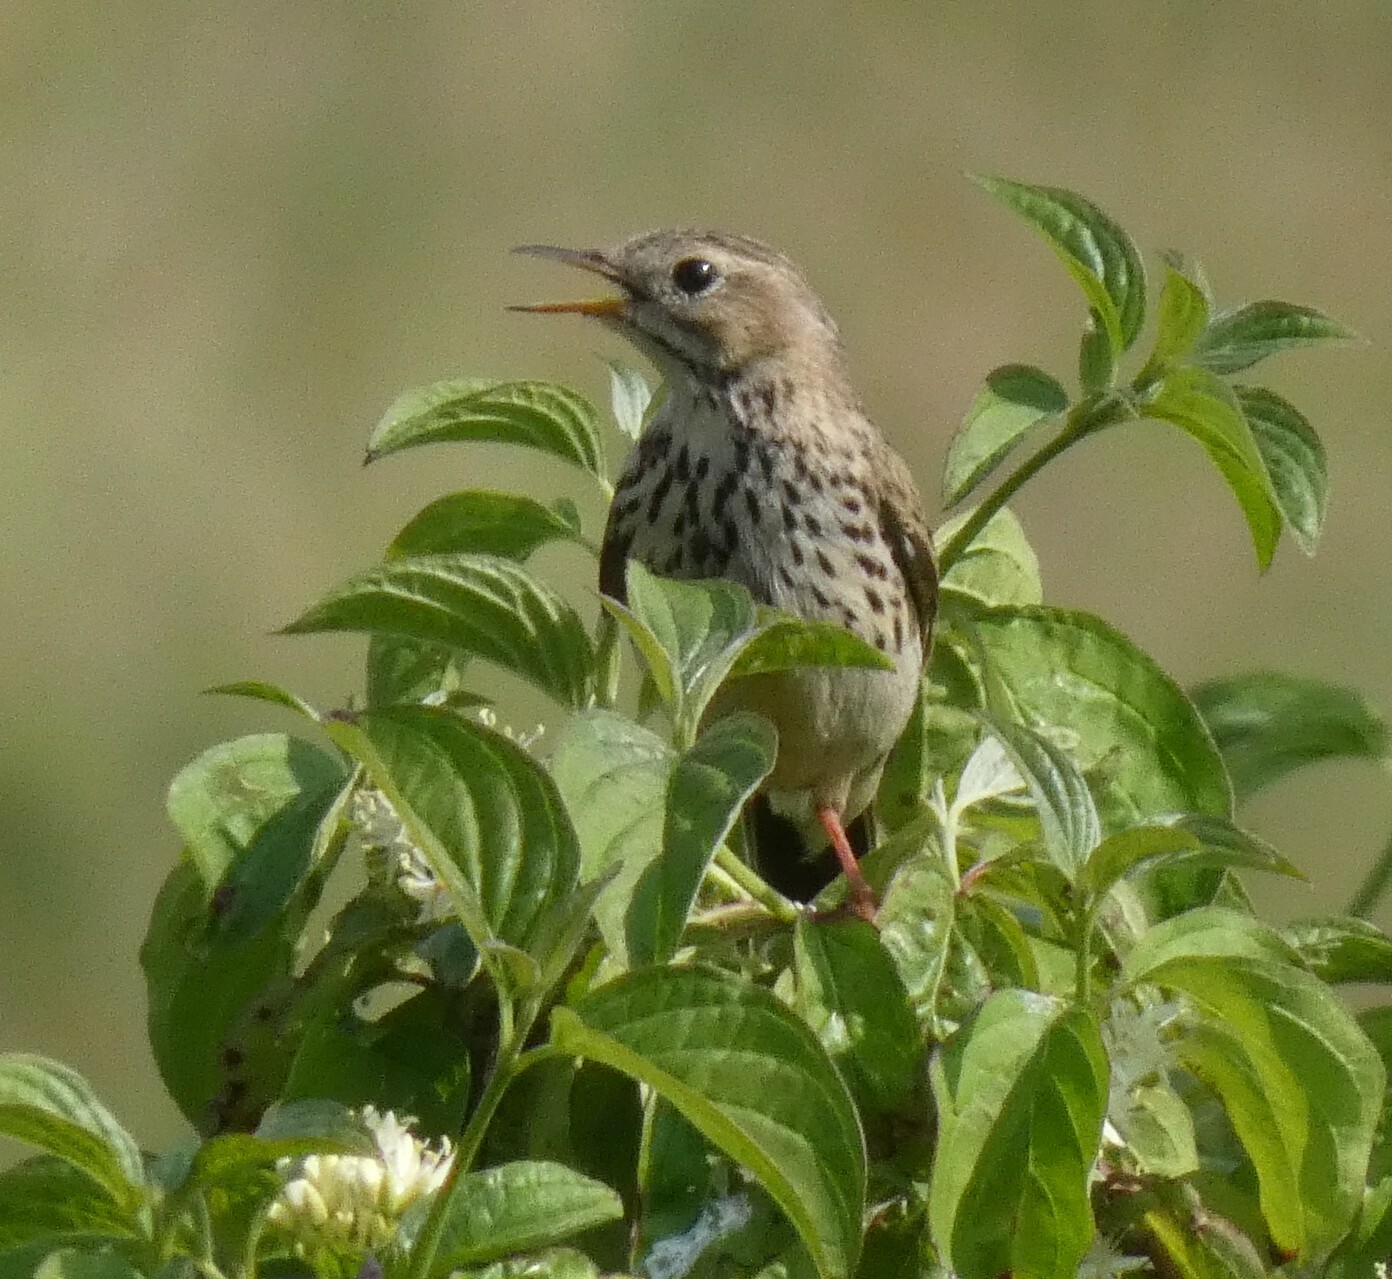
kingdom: Animalia
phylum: Chordata
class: Aves
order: Passeriformes
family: Motacillidae
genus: Anthus
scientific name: Anthus pratensis
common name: Meadow pipit
